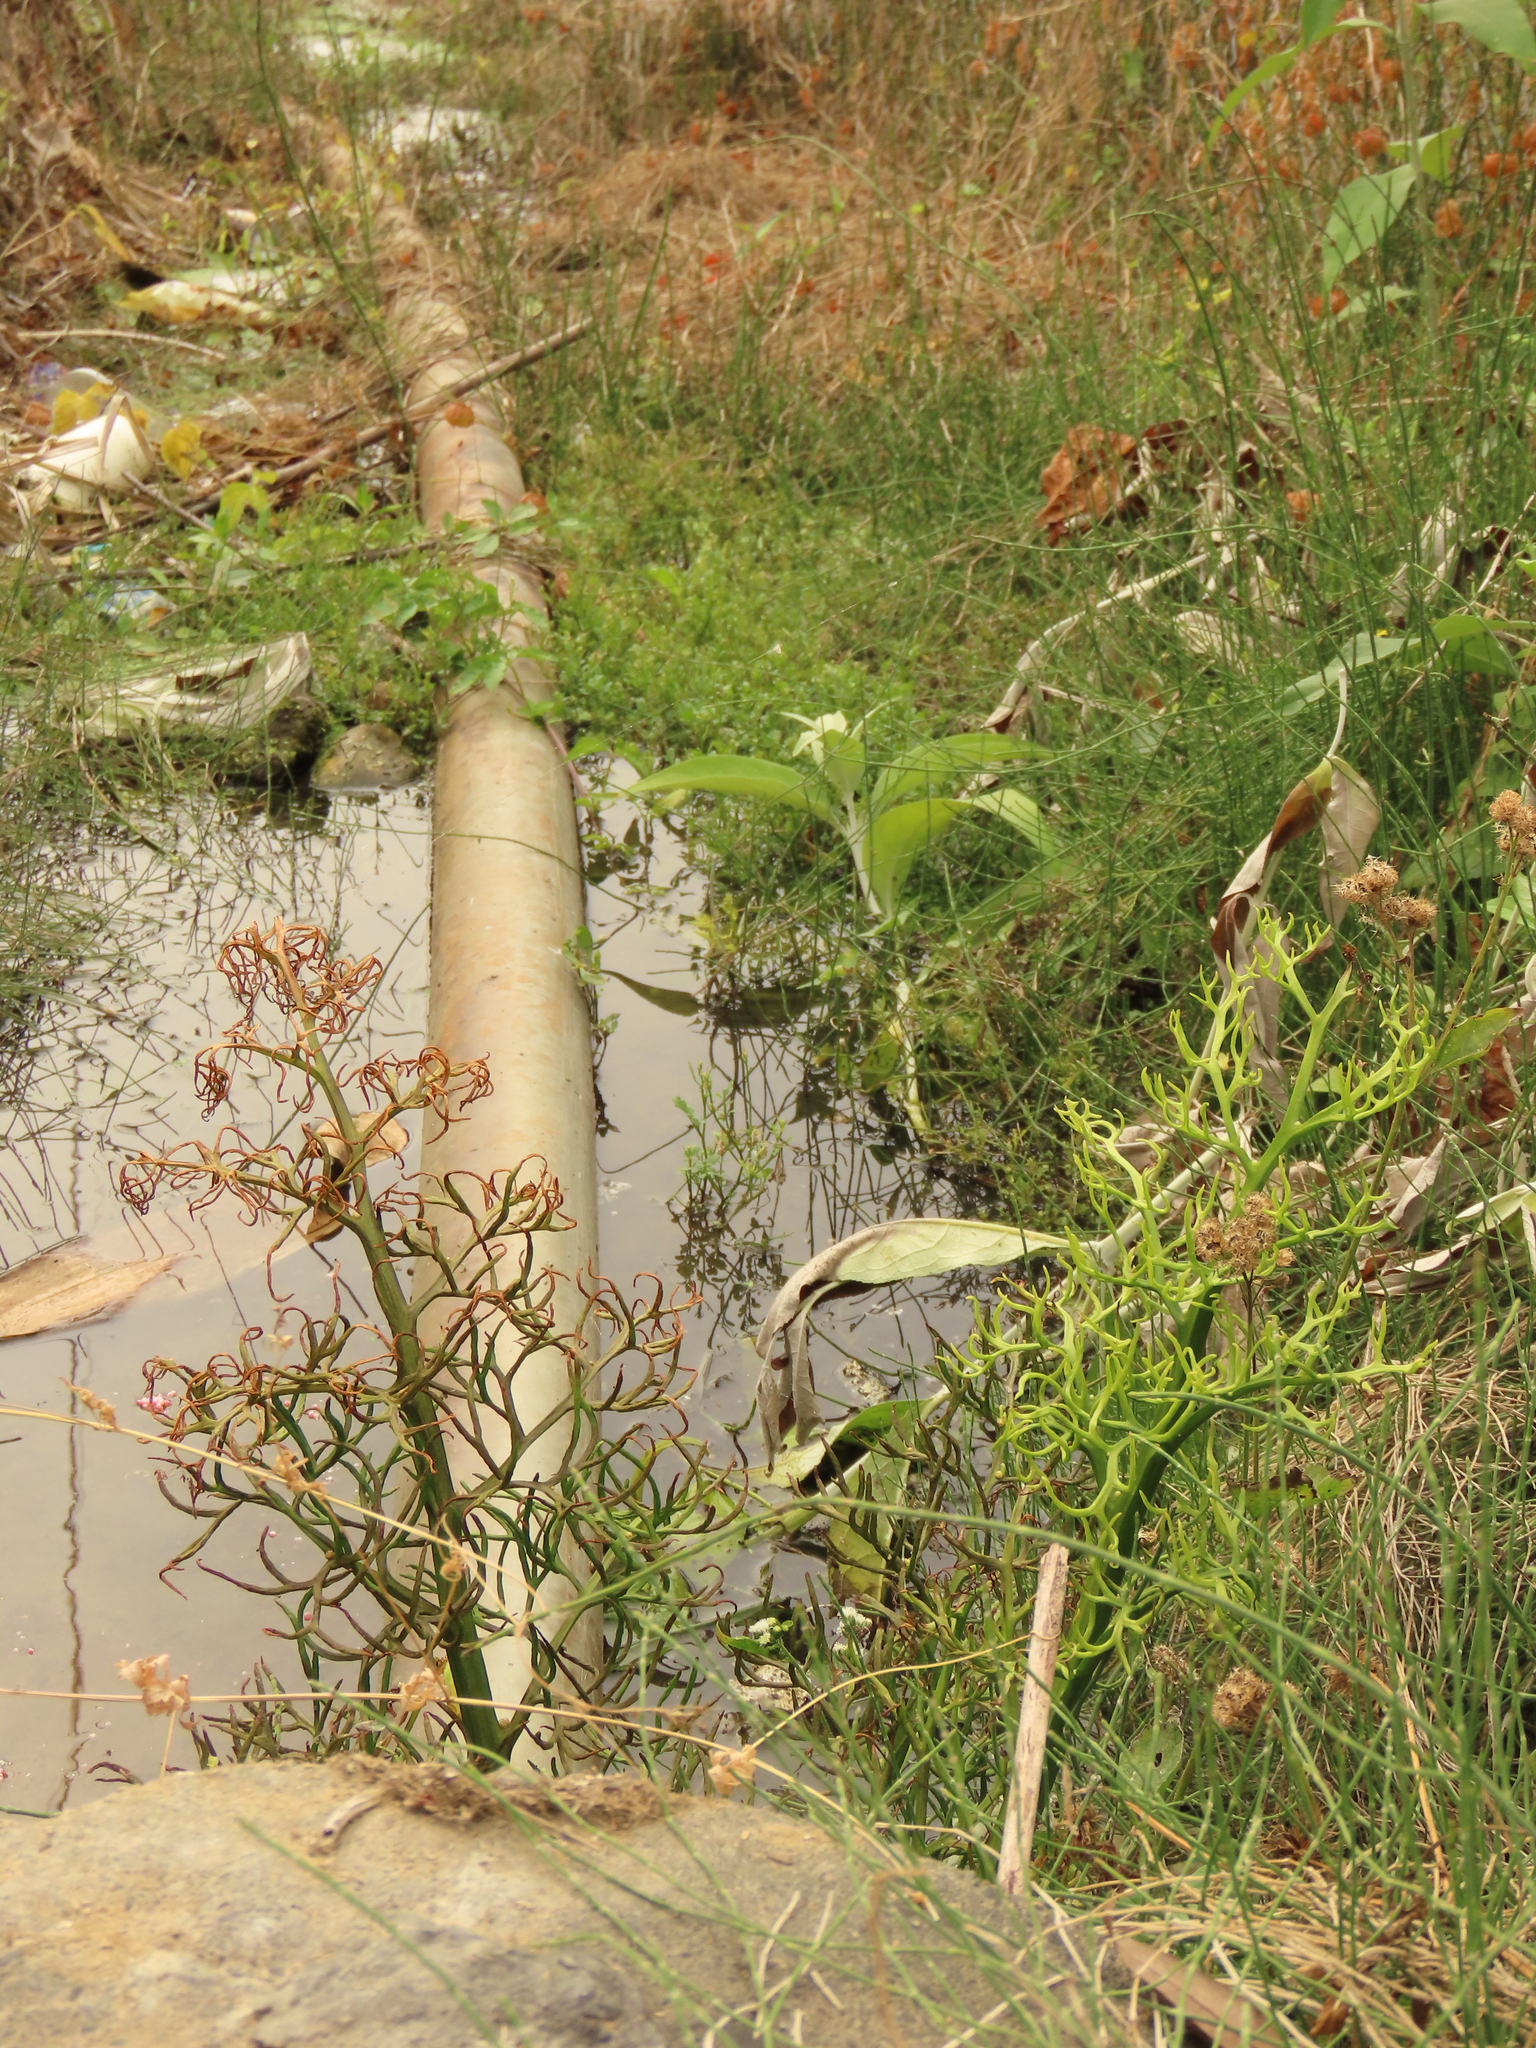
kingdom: Plantae
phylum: Tracheophyta
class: Magnoliopsida
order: Lamiales
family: Scrophulariaceae
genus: Buddleja
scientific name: Buddleja asiatica
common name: Dog tail
